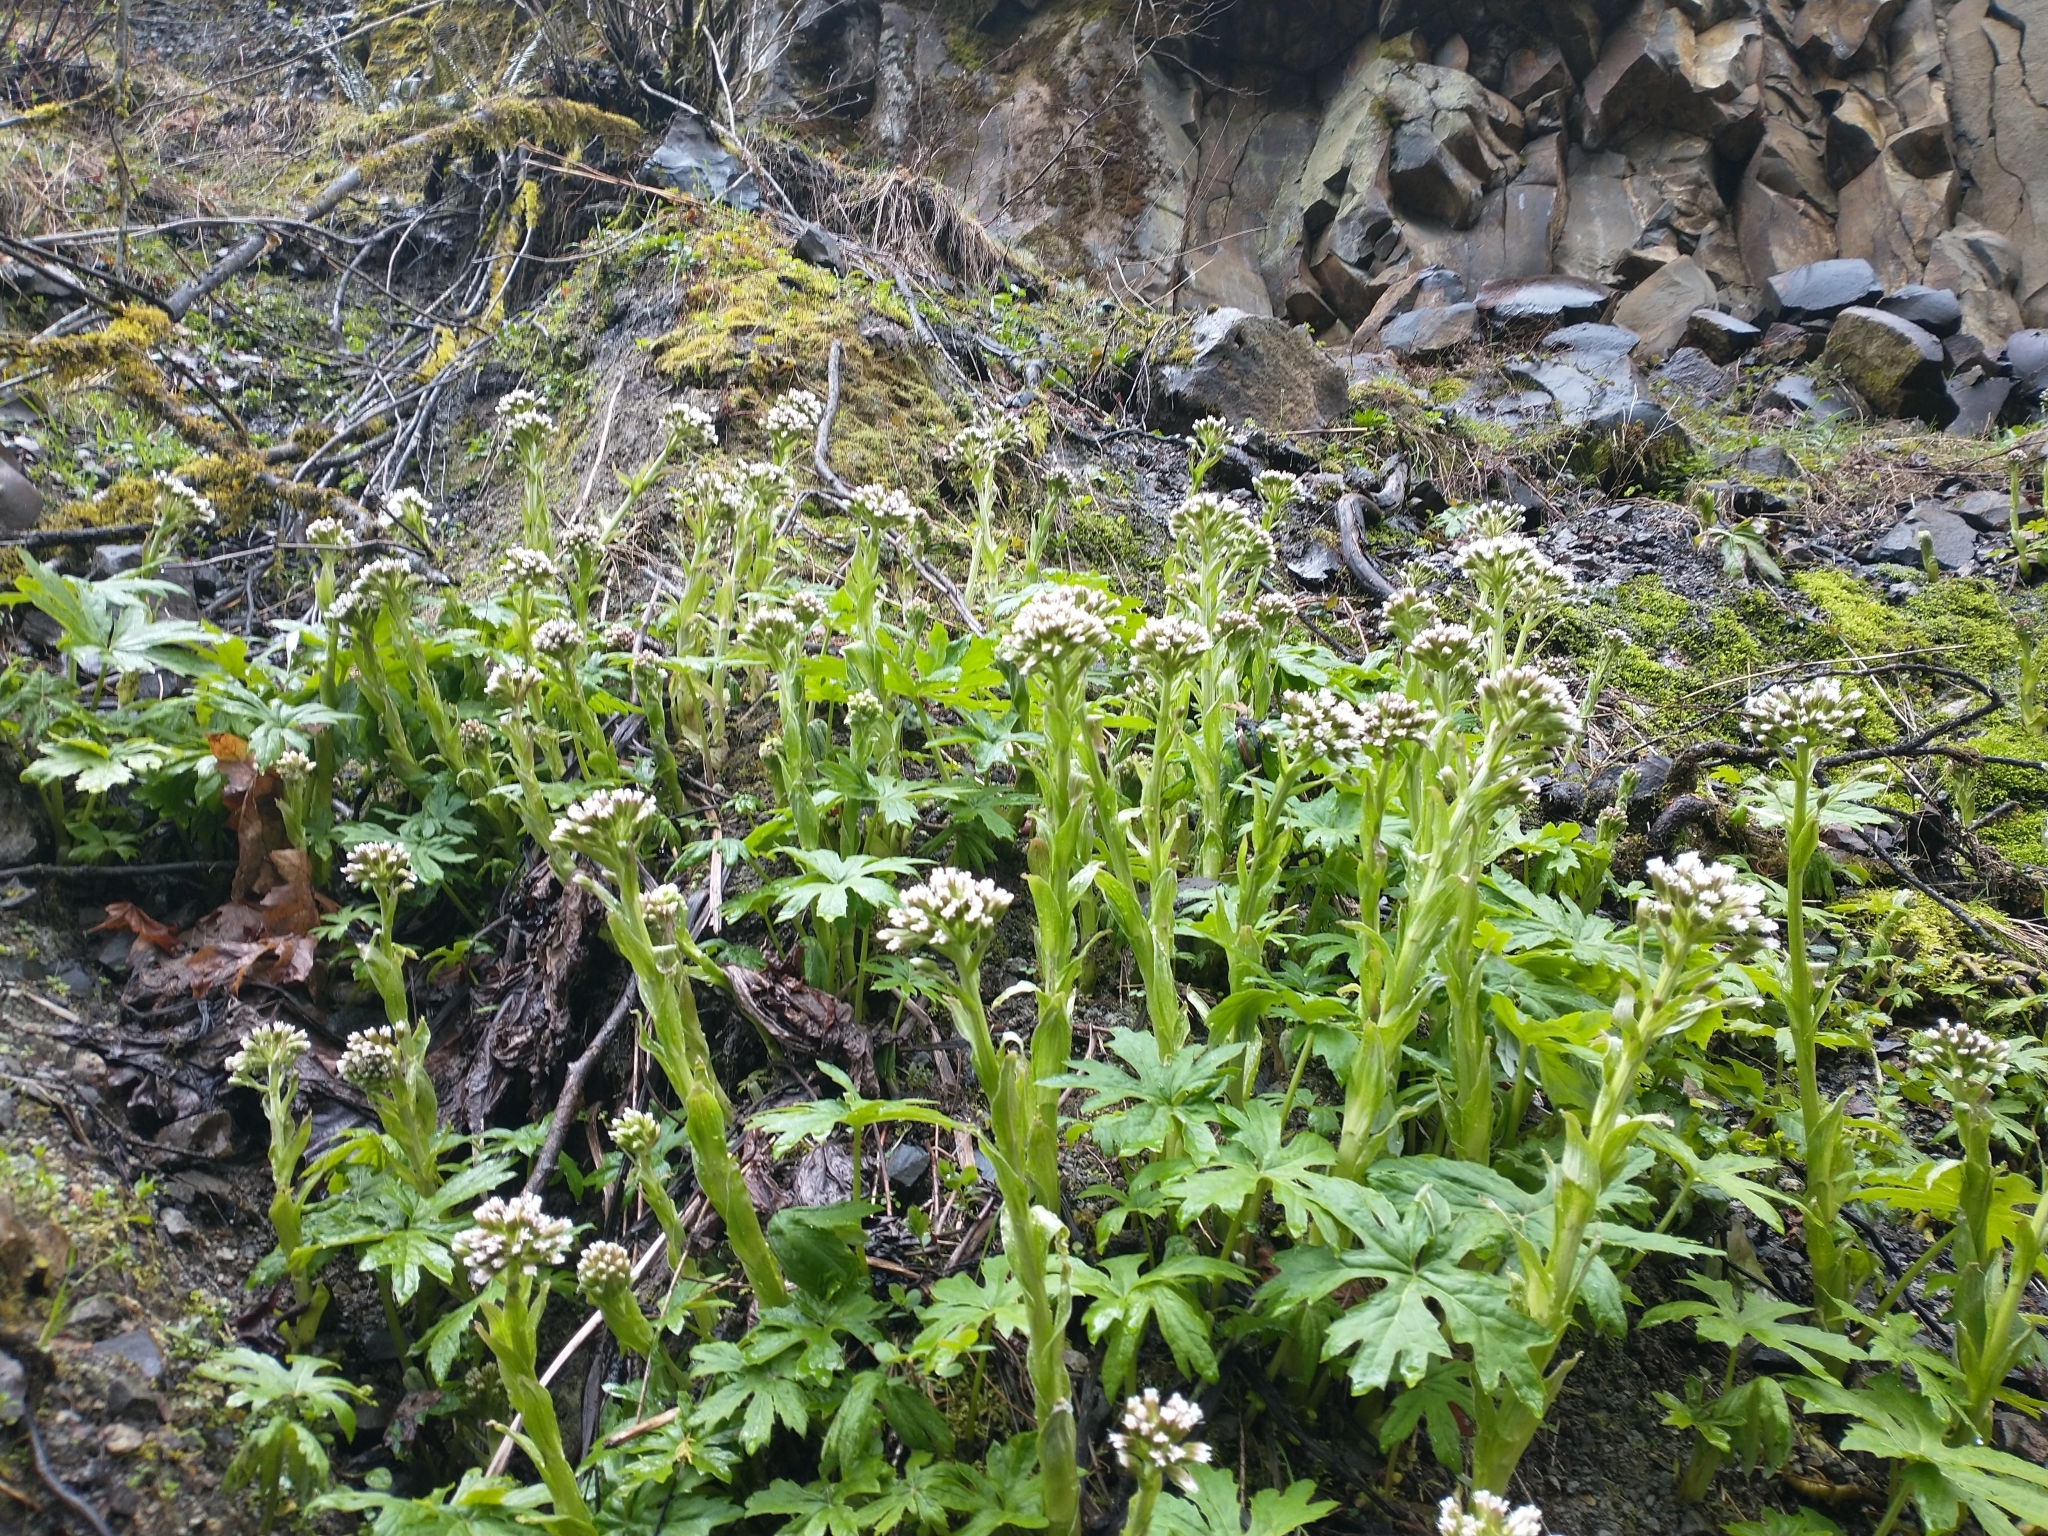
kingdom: Plantae
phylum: Tracheophyta
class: Magnoliopsida
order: Asterales
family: Asteraceae
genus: Petasites
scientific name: Petasites frigidus
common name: Arctic butterbur
